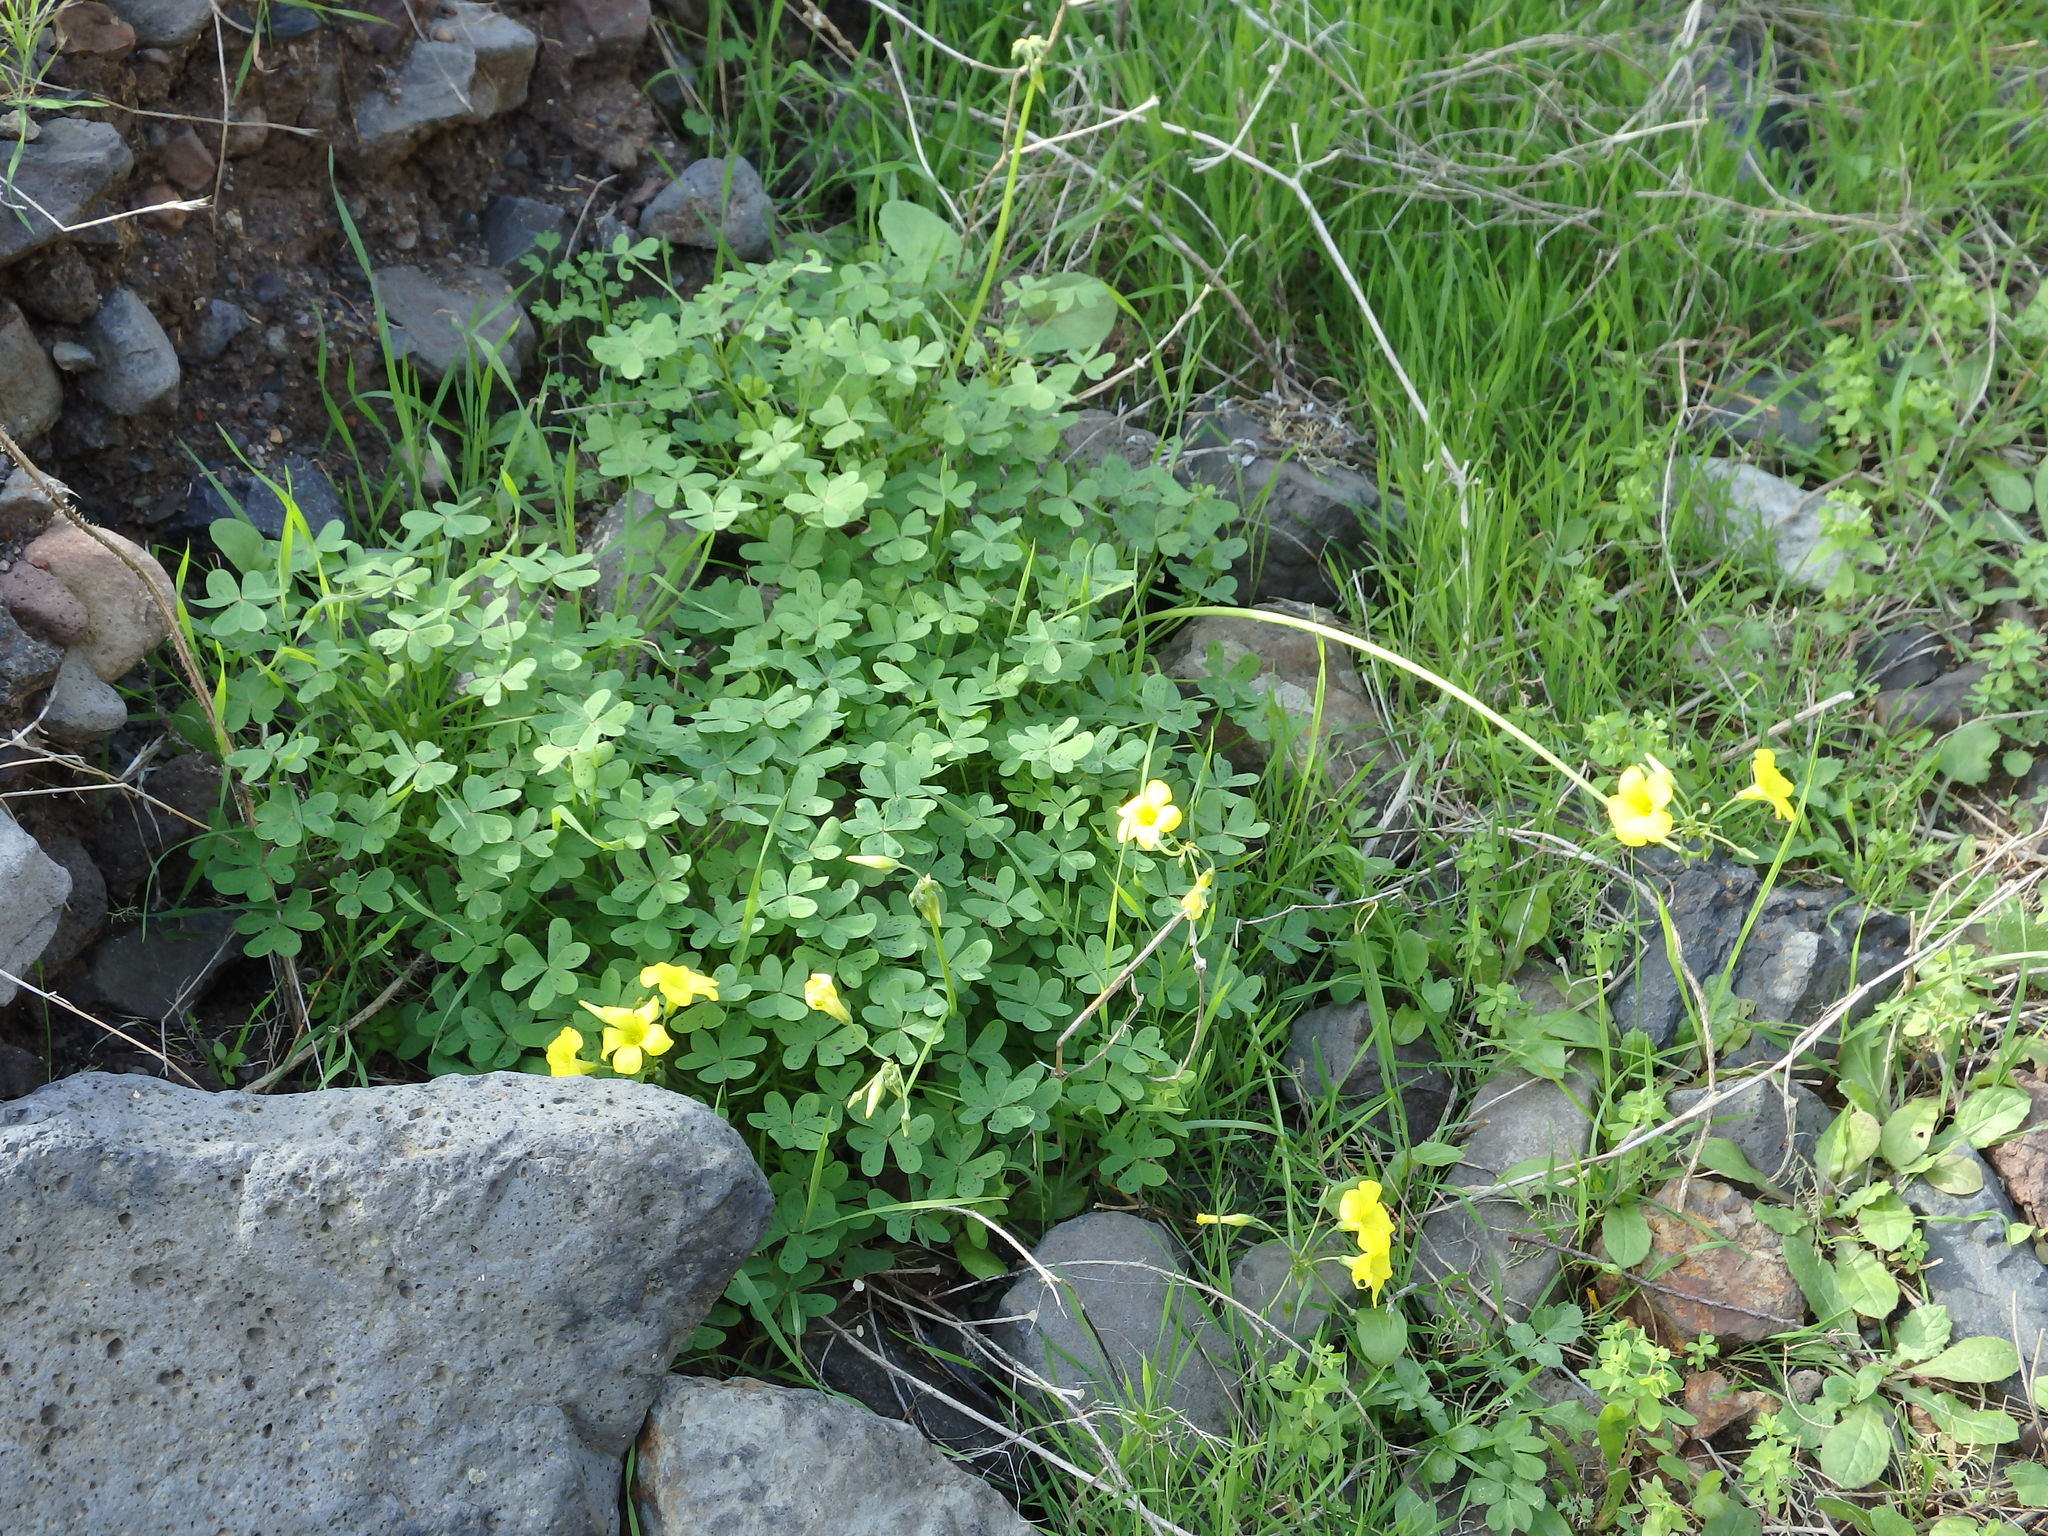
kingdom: Plantae
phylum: Tracheophyta
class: Magnoliopsida
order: Oxalidales
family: Oxalidaceae
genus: Oxalis
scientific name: Oxalis pes-caprae
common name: Bermuda-buttercup
